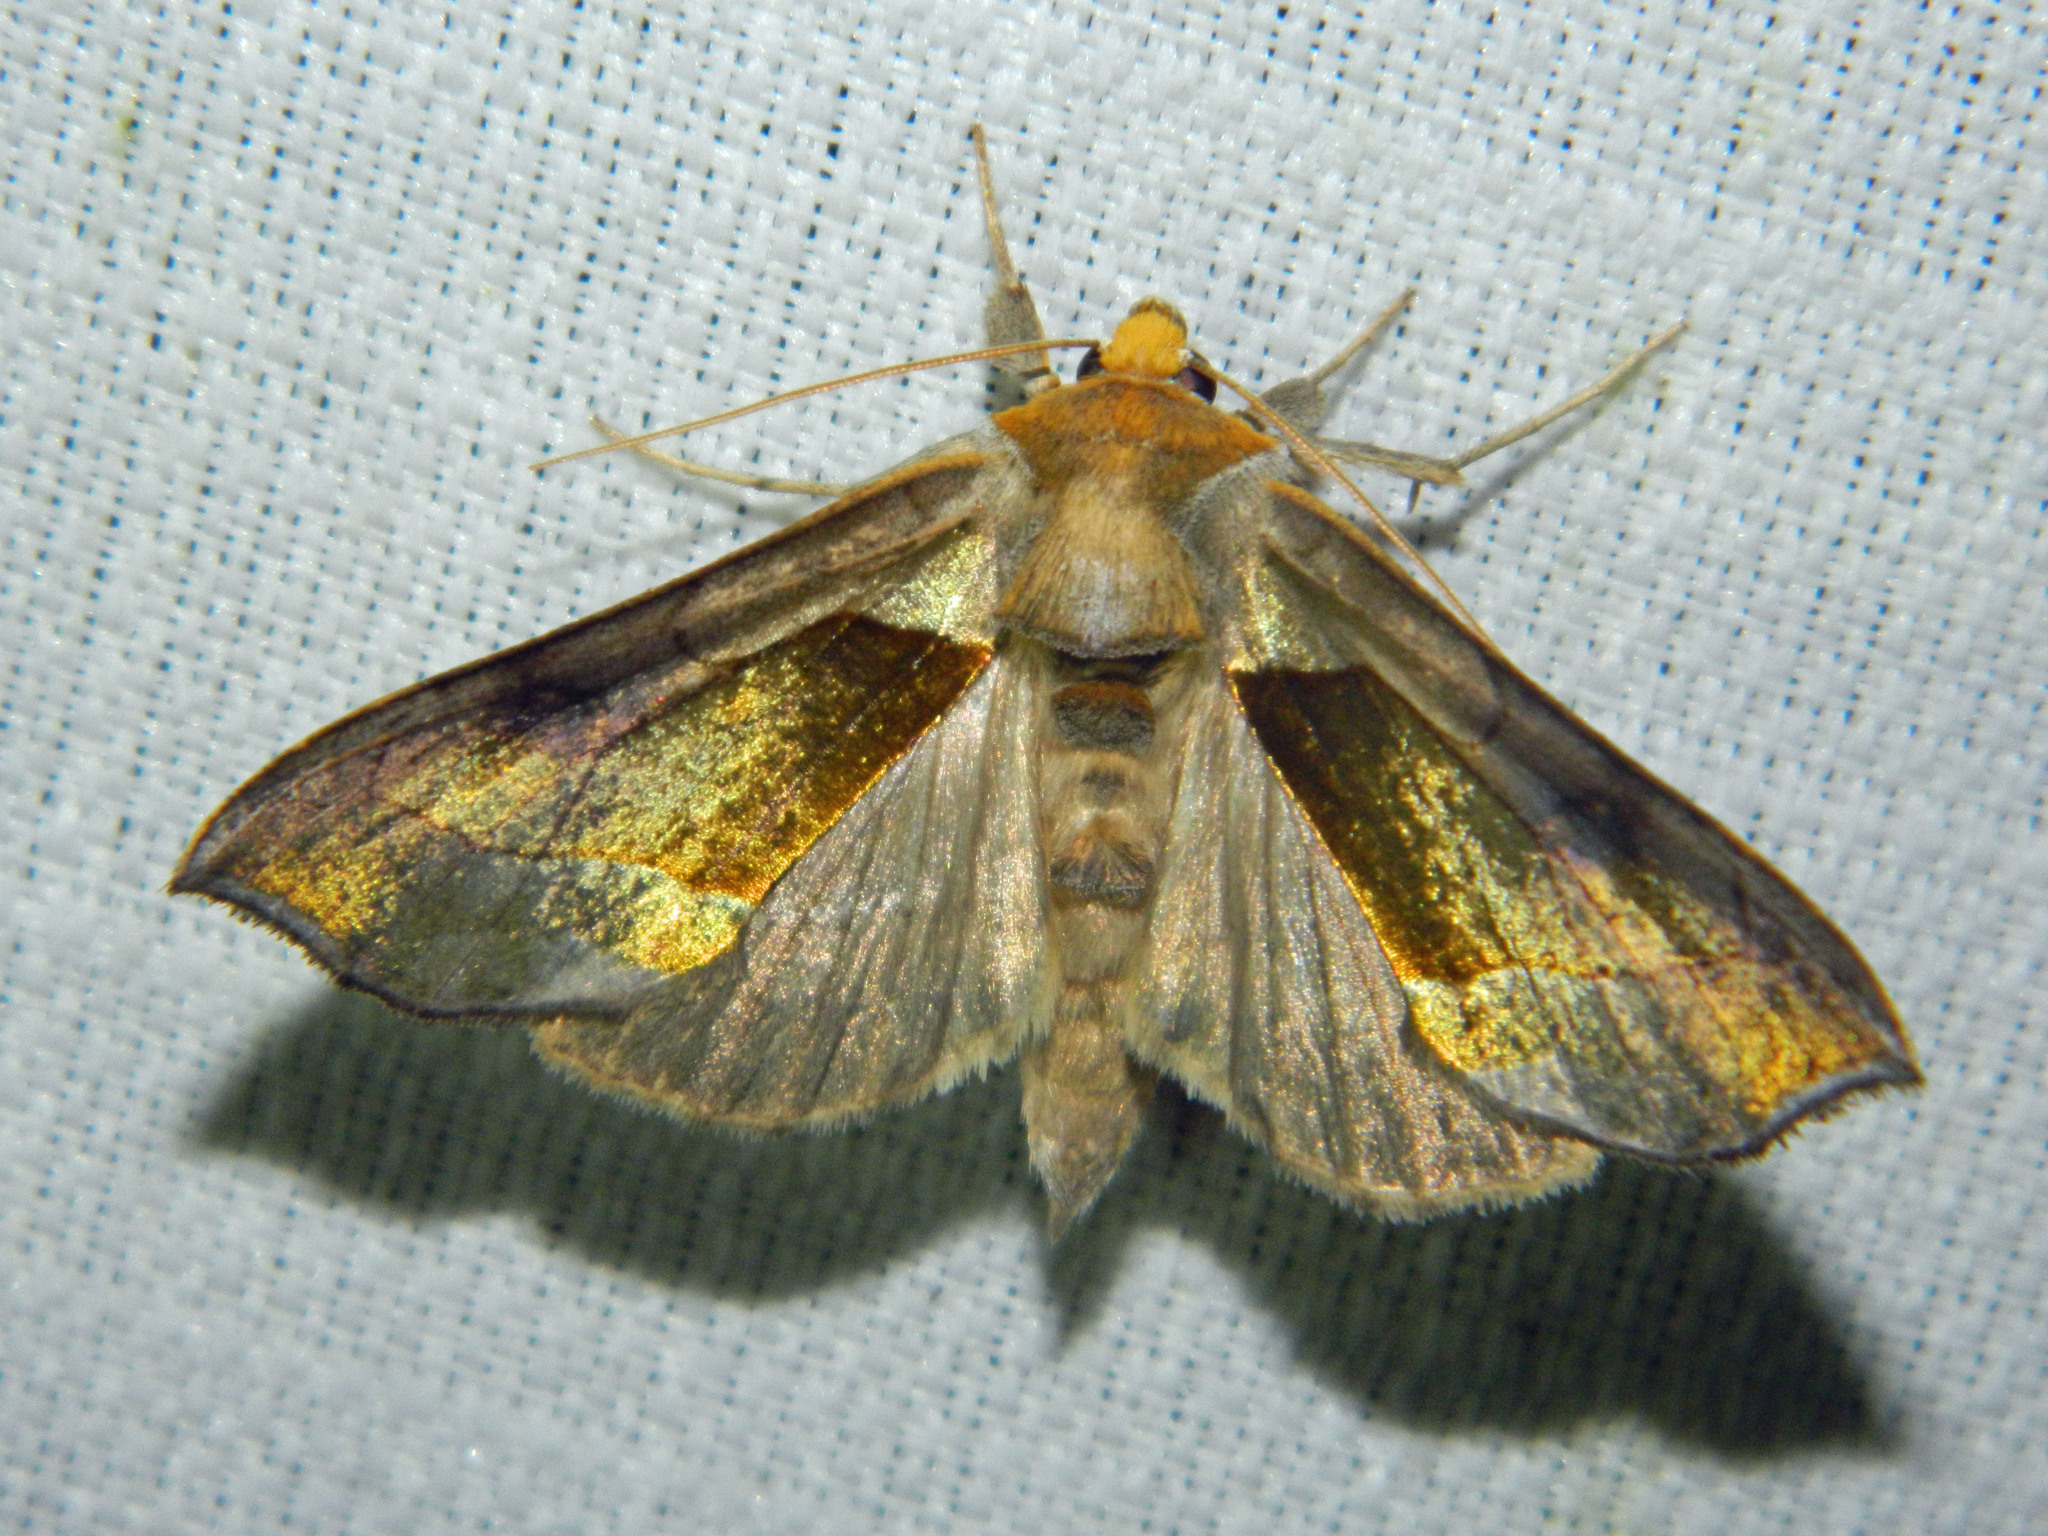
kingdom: Animalia
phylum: Arthropoda
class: Insecta
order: Lepidoptera
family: Noctuidae
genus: Diachrysia
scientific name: Diachrysia balluca
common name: Green-patched looper moth
